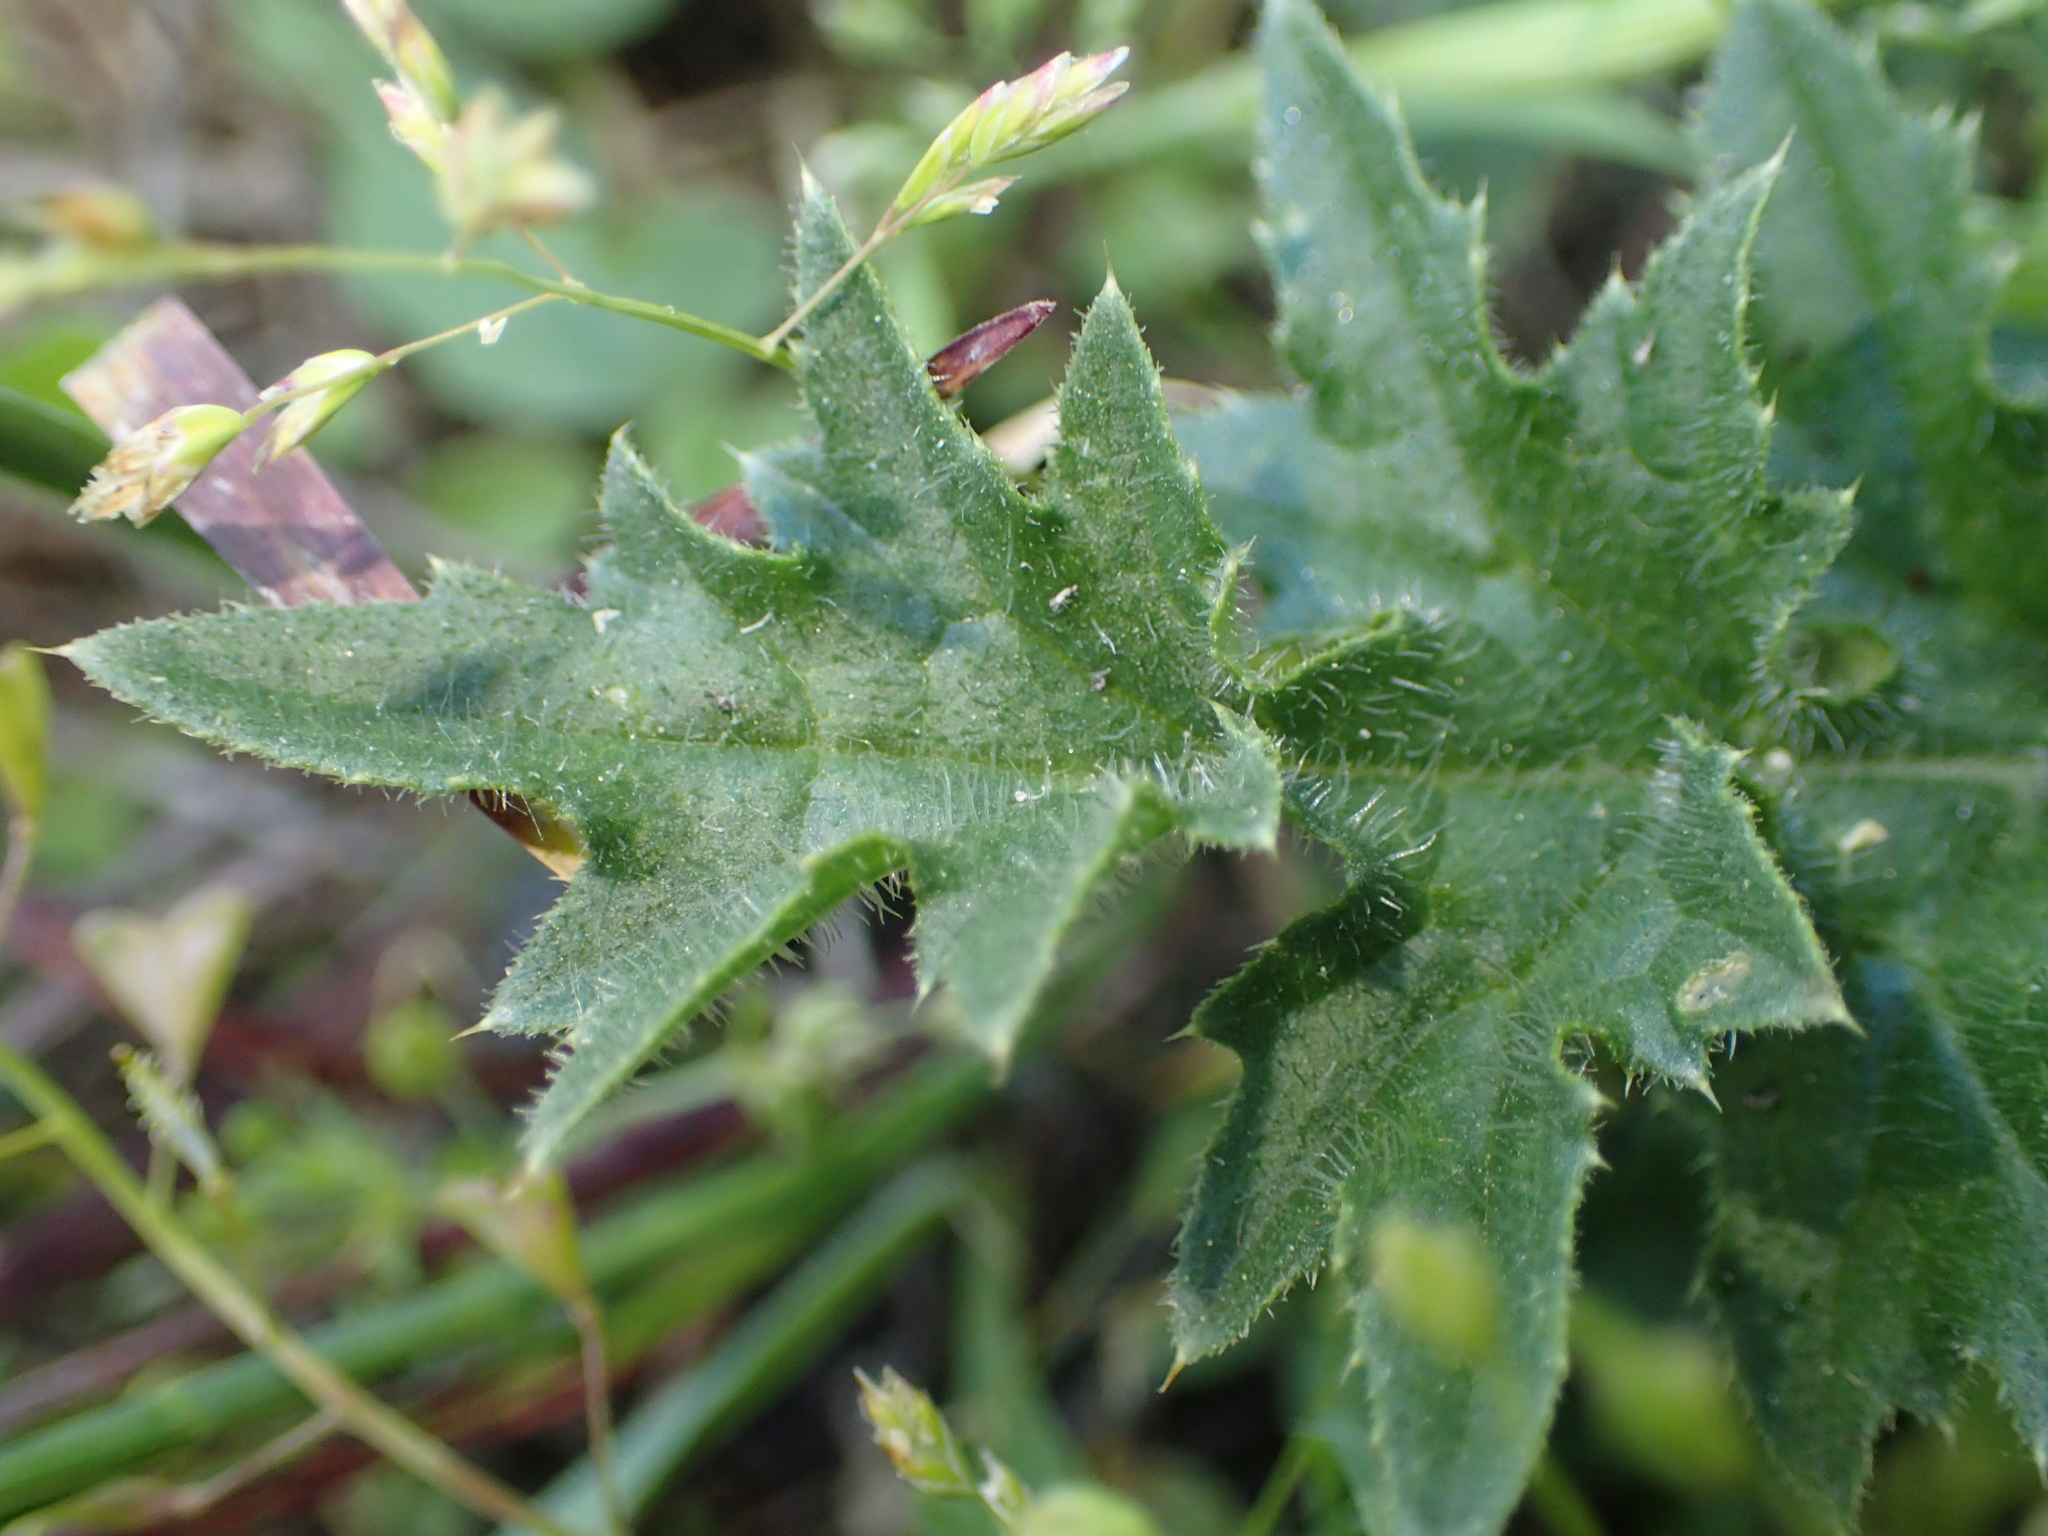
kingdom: Plantae
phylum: Tracheophyta
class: Magnoliopsida
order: Asterales
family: Asteraceae
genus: Carduus
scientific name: Carduus acanthoides
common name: Plumeless thistle
